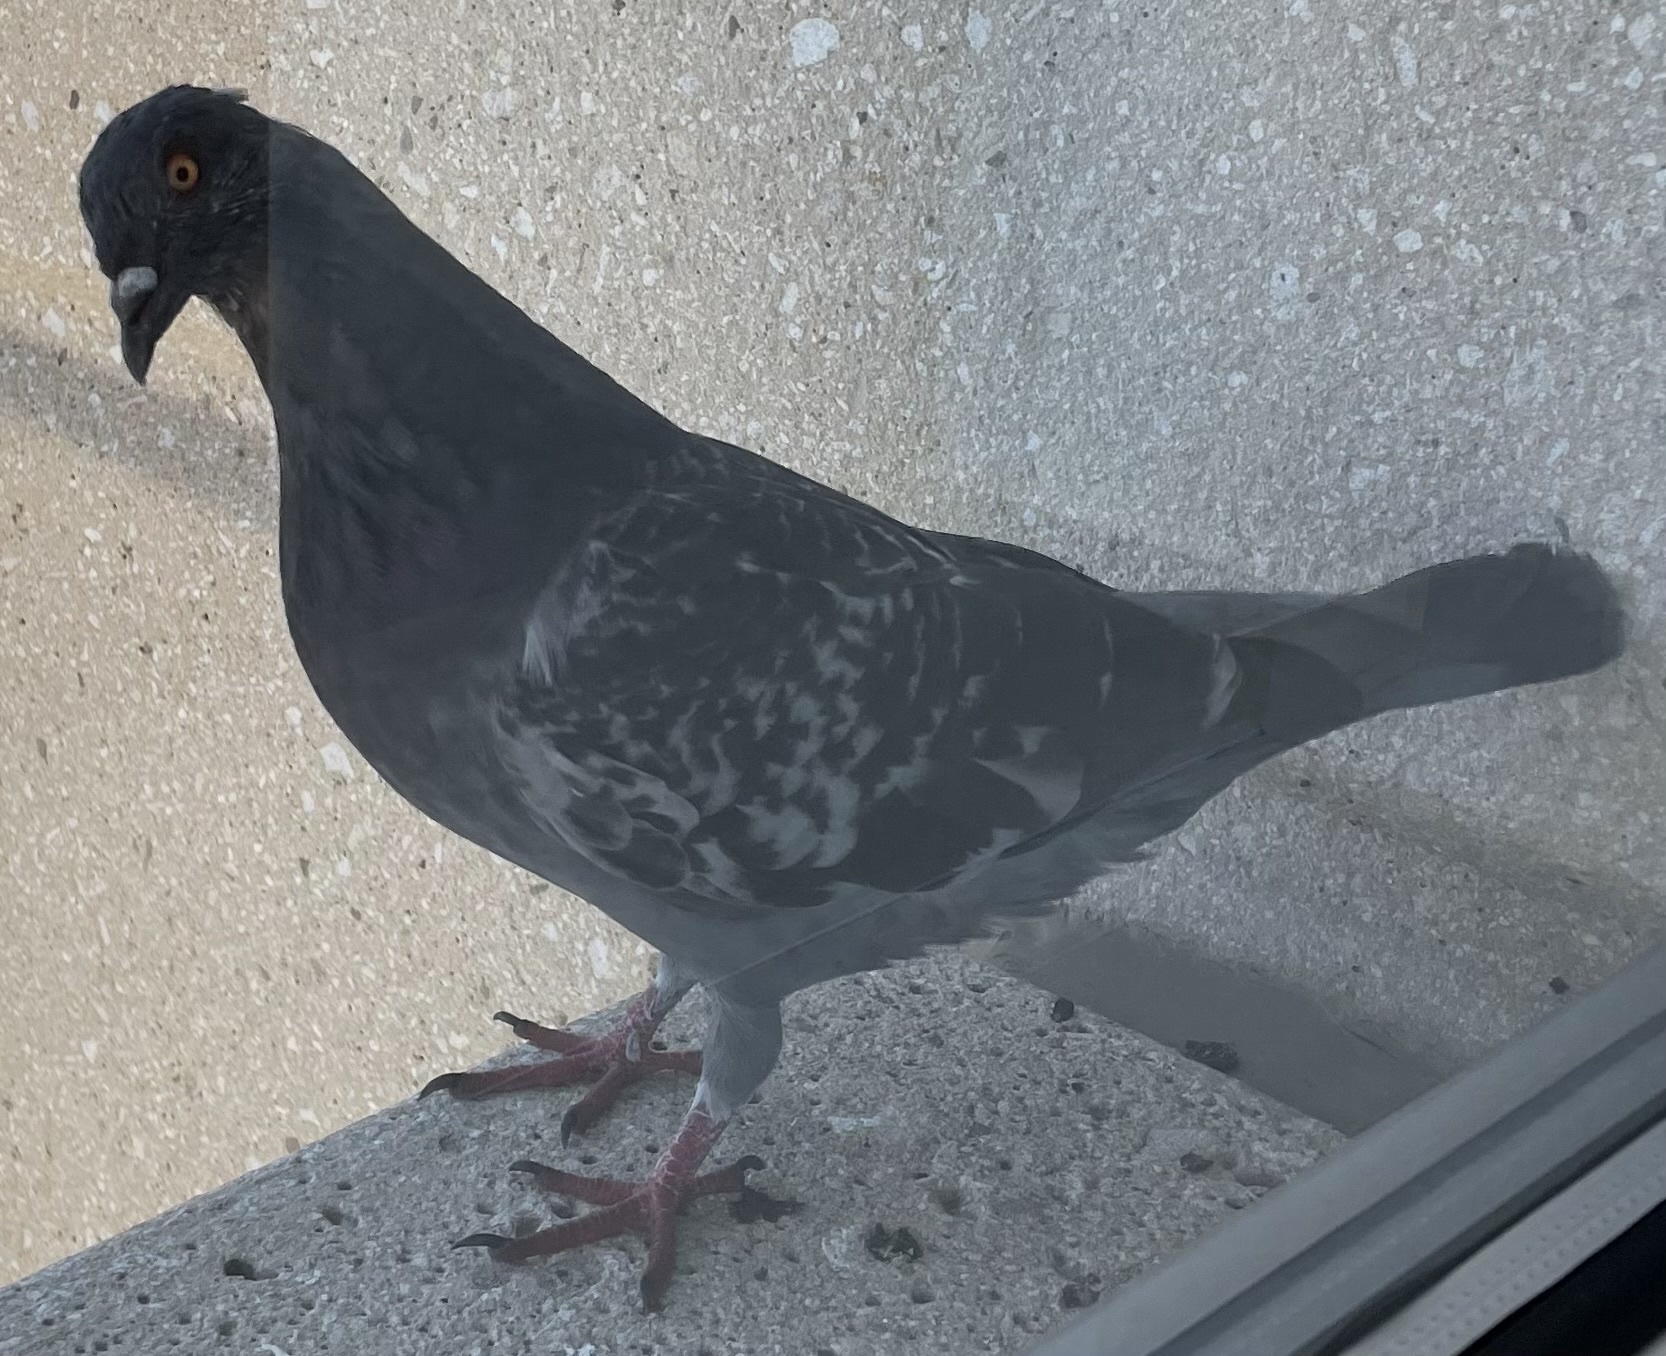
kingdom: Animalia
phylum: Chordata
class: Aves
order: Columbiformes
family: Columbidae
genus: Columba
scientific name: Columba livia
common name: Rock pigeon
